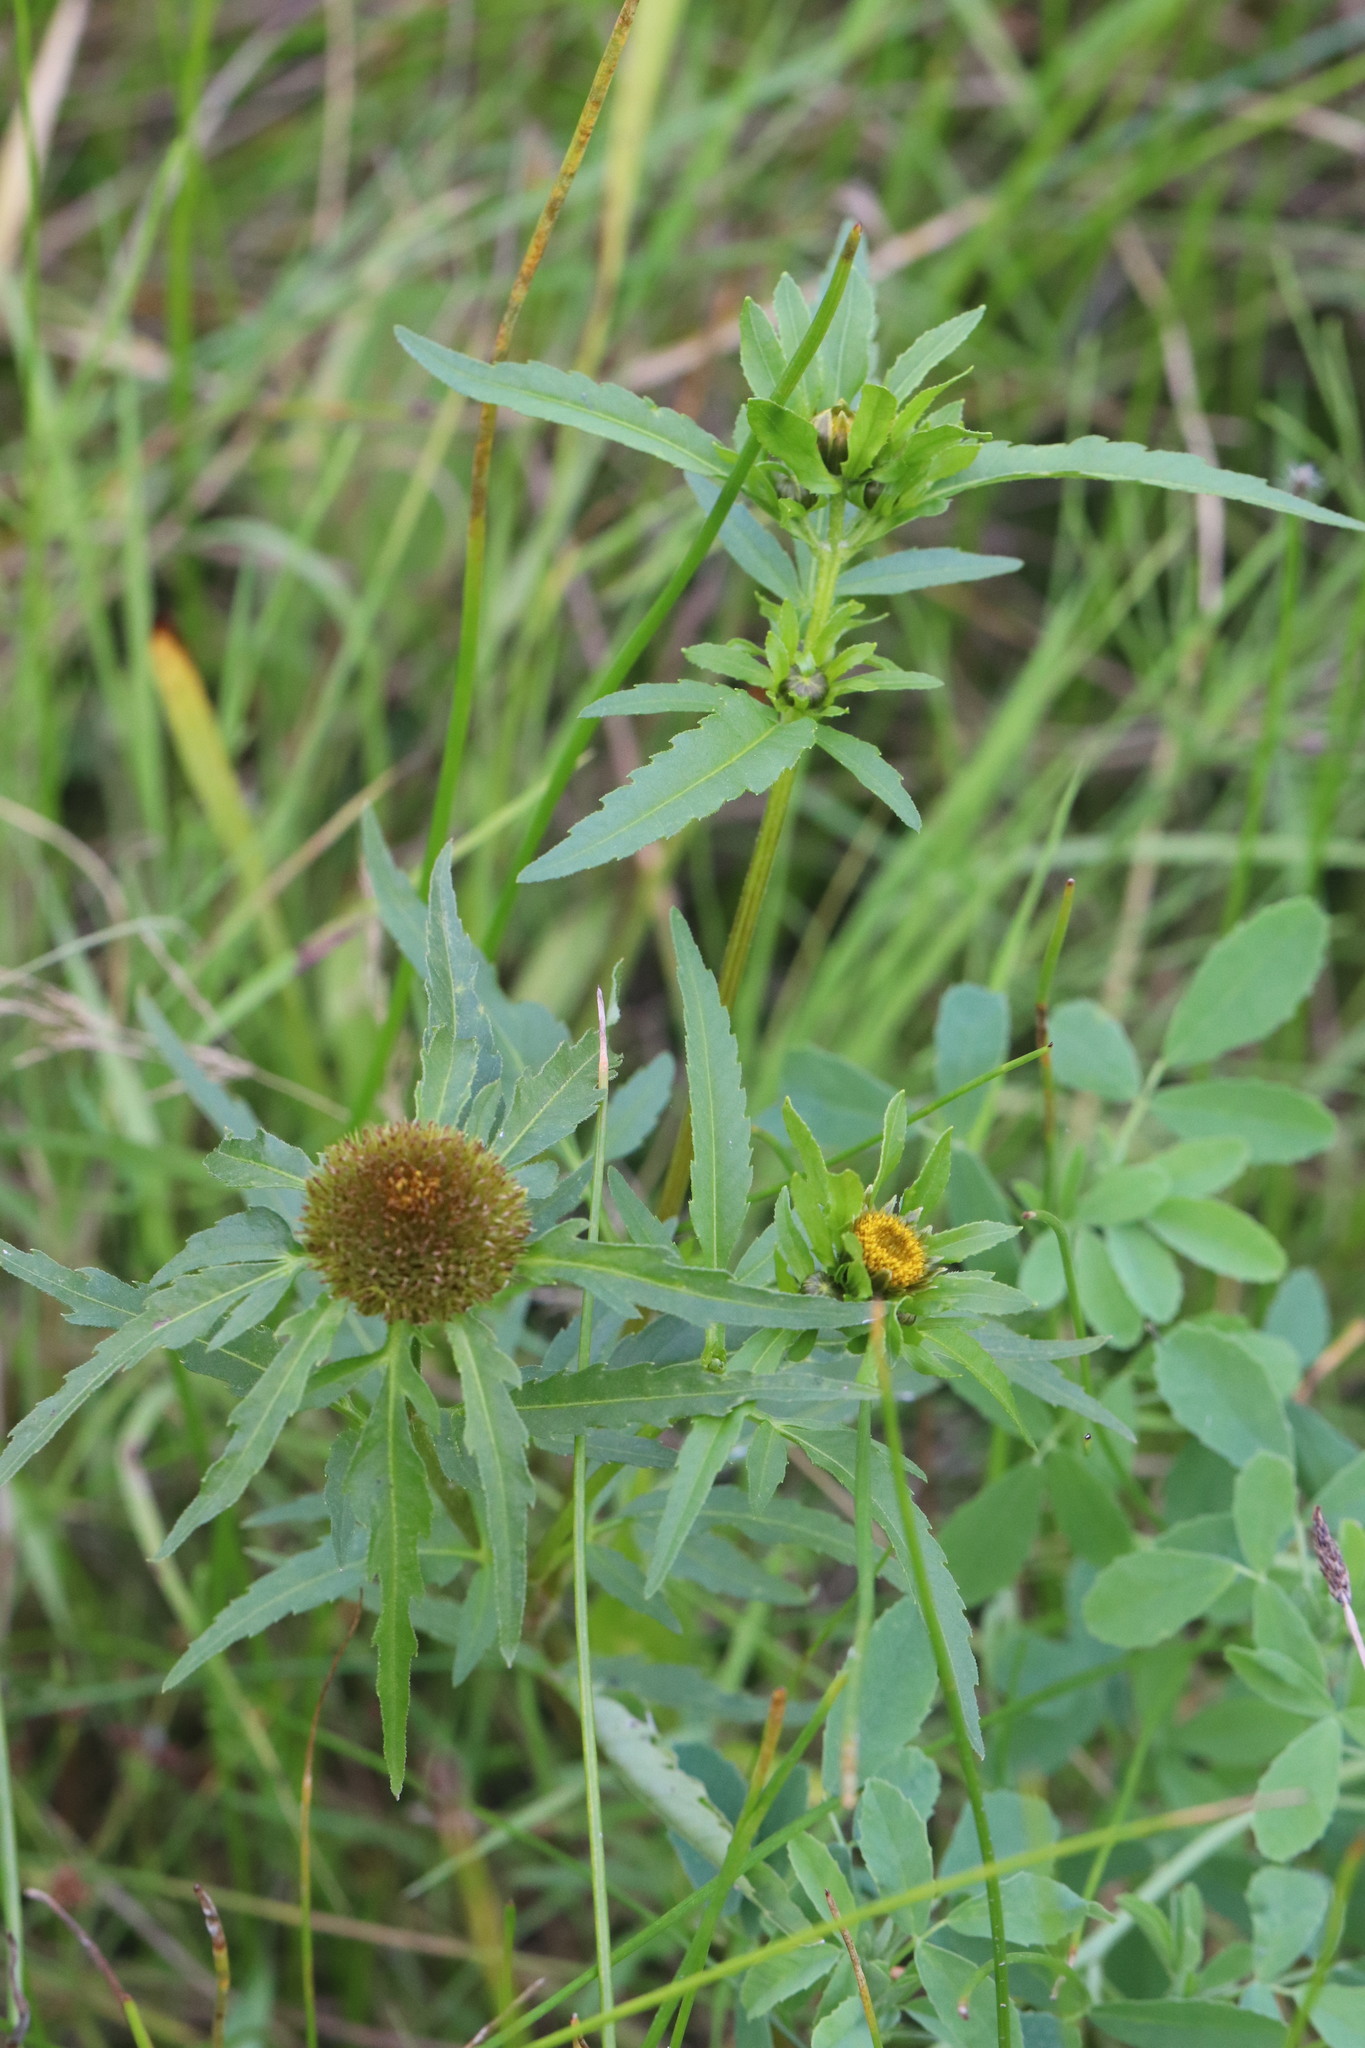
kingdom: Plantae
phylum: Tracheophyta
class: Magnoliopsida
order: Asterales
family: Asteraceae
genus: Bidens
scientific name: Bidens radiata
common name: Radiating bur-marigold
